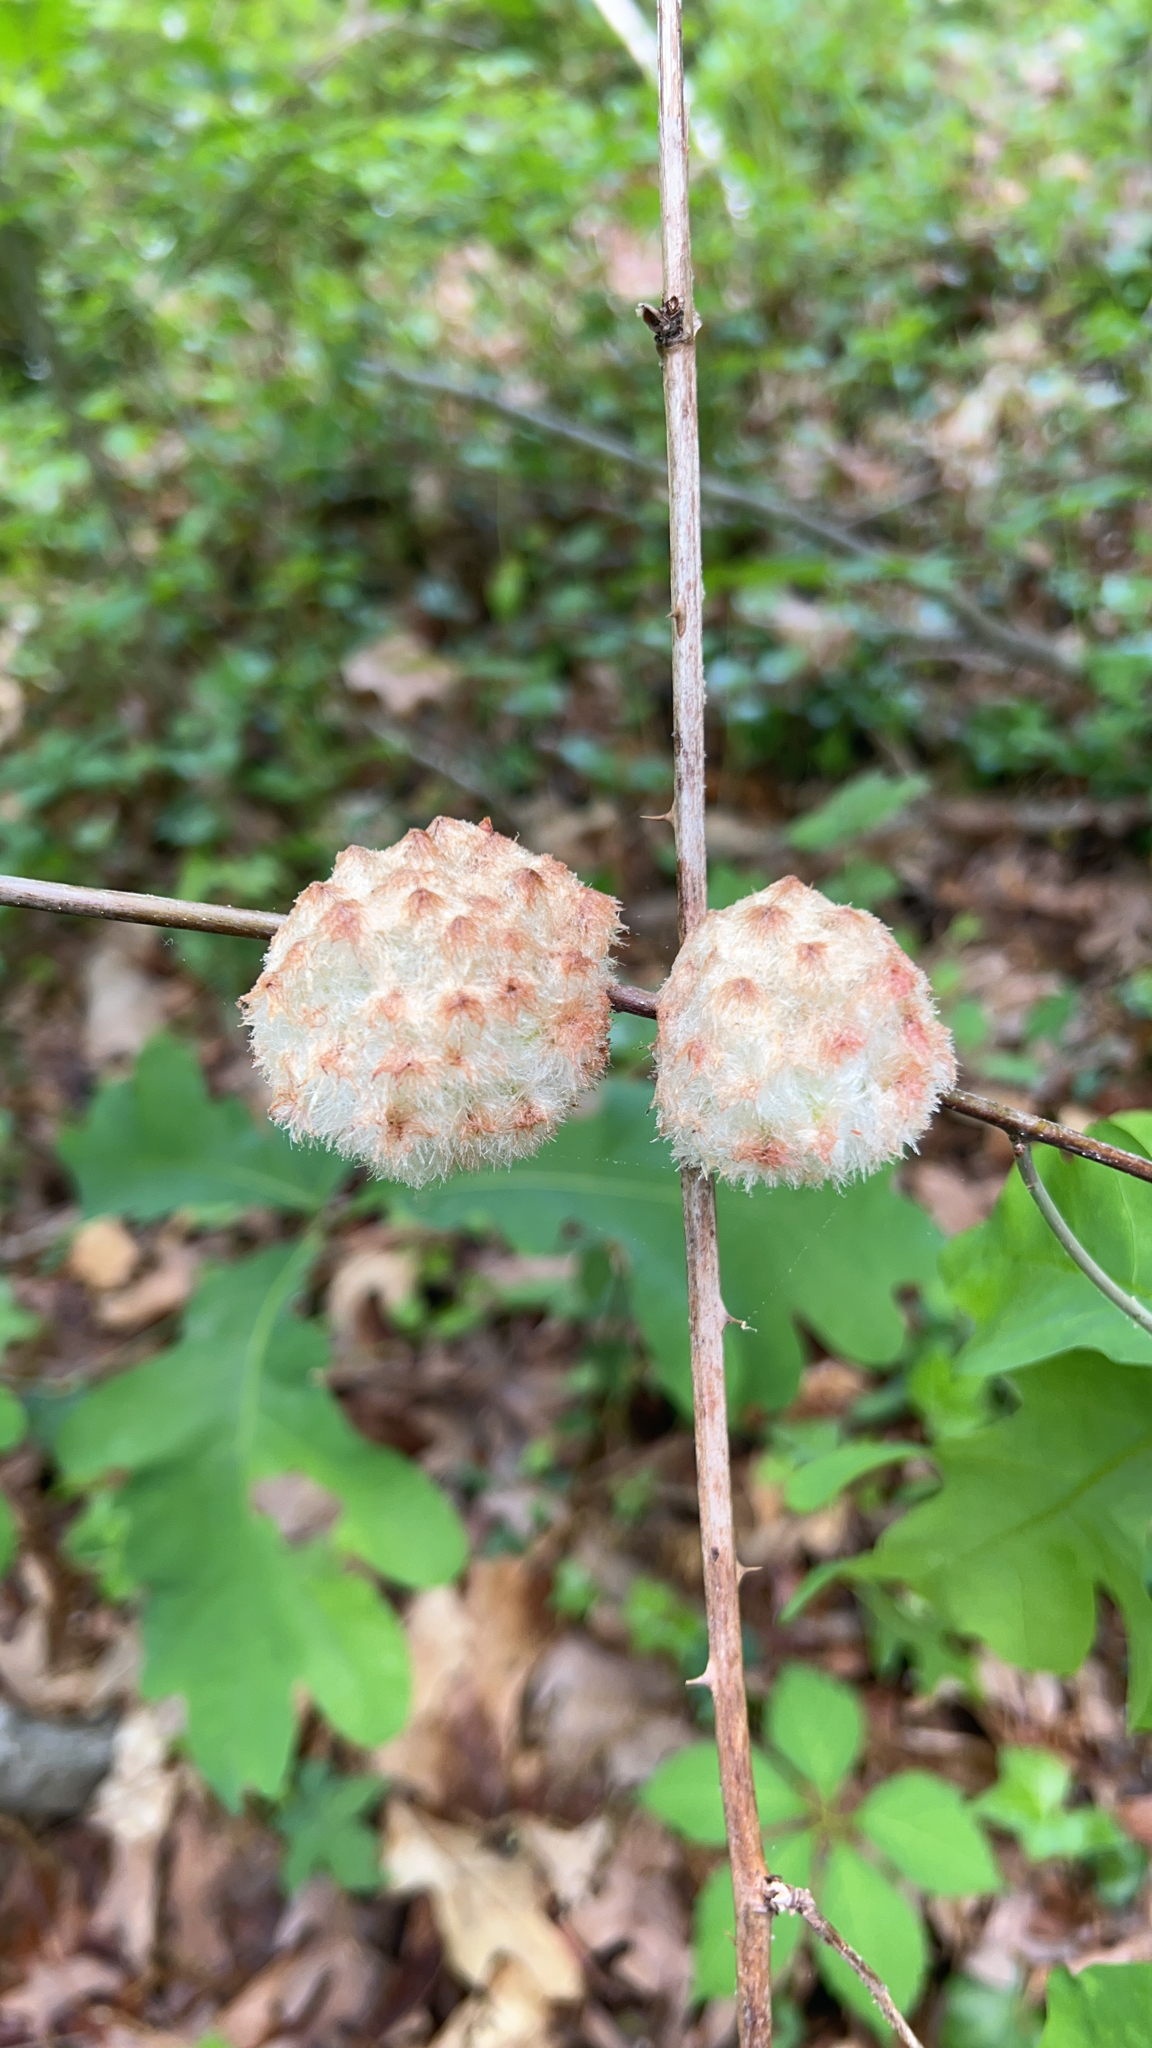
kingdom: Animalia
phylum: Arthropoda
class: Insecta
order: Hymenoptera
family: Cynipidae
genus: Callirhytis
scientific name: Callirhytis
